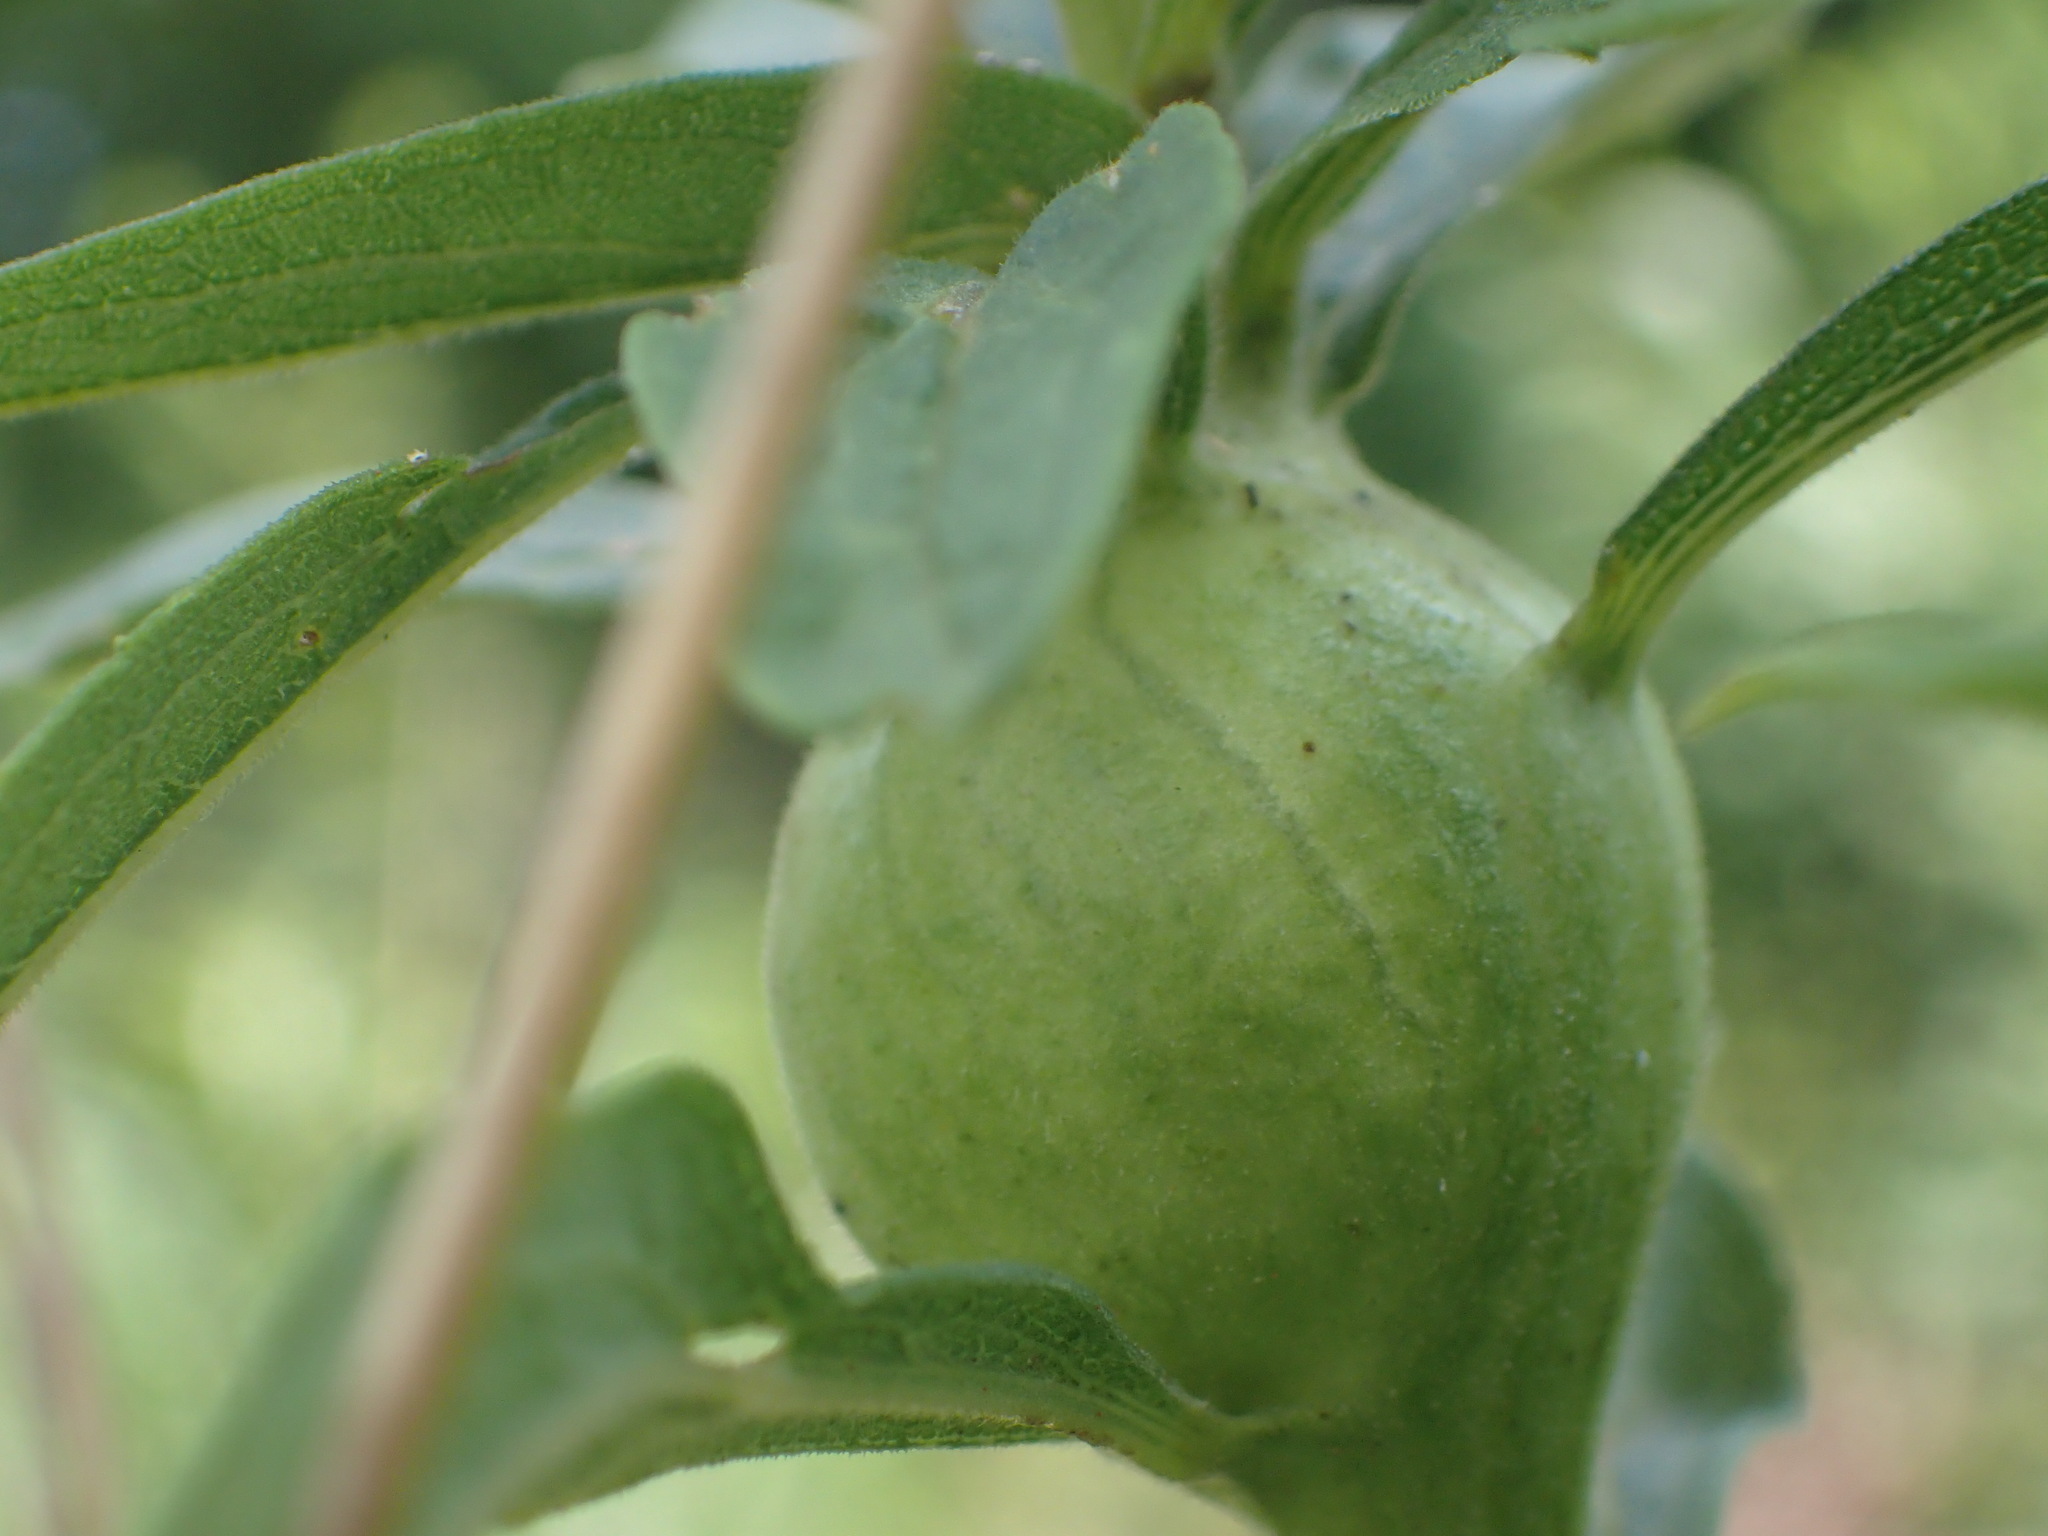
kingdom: Animalia
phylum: Arthropoda
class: Insecta
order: Diptera
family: Tephritidae
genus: Eurosta
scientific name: Eurosta solidaginis
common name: Goldenrod gall fly
